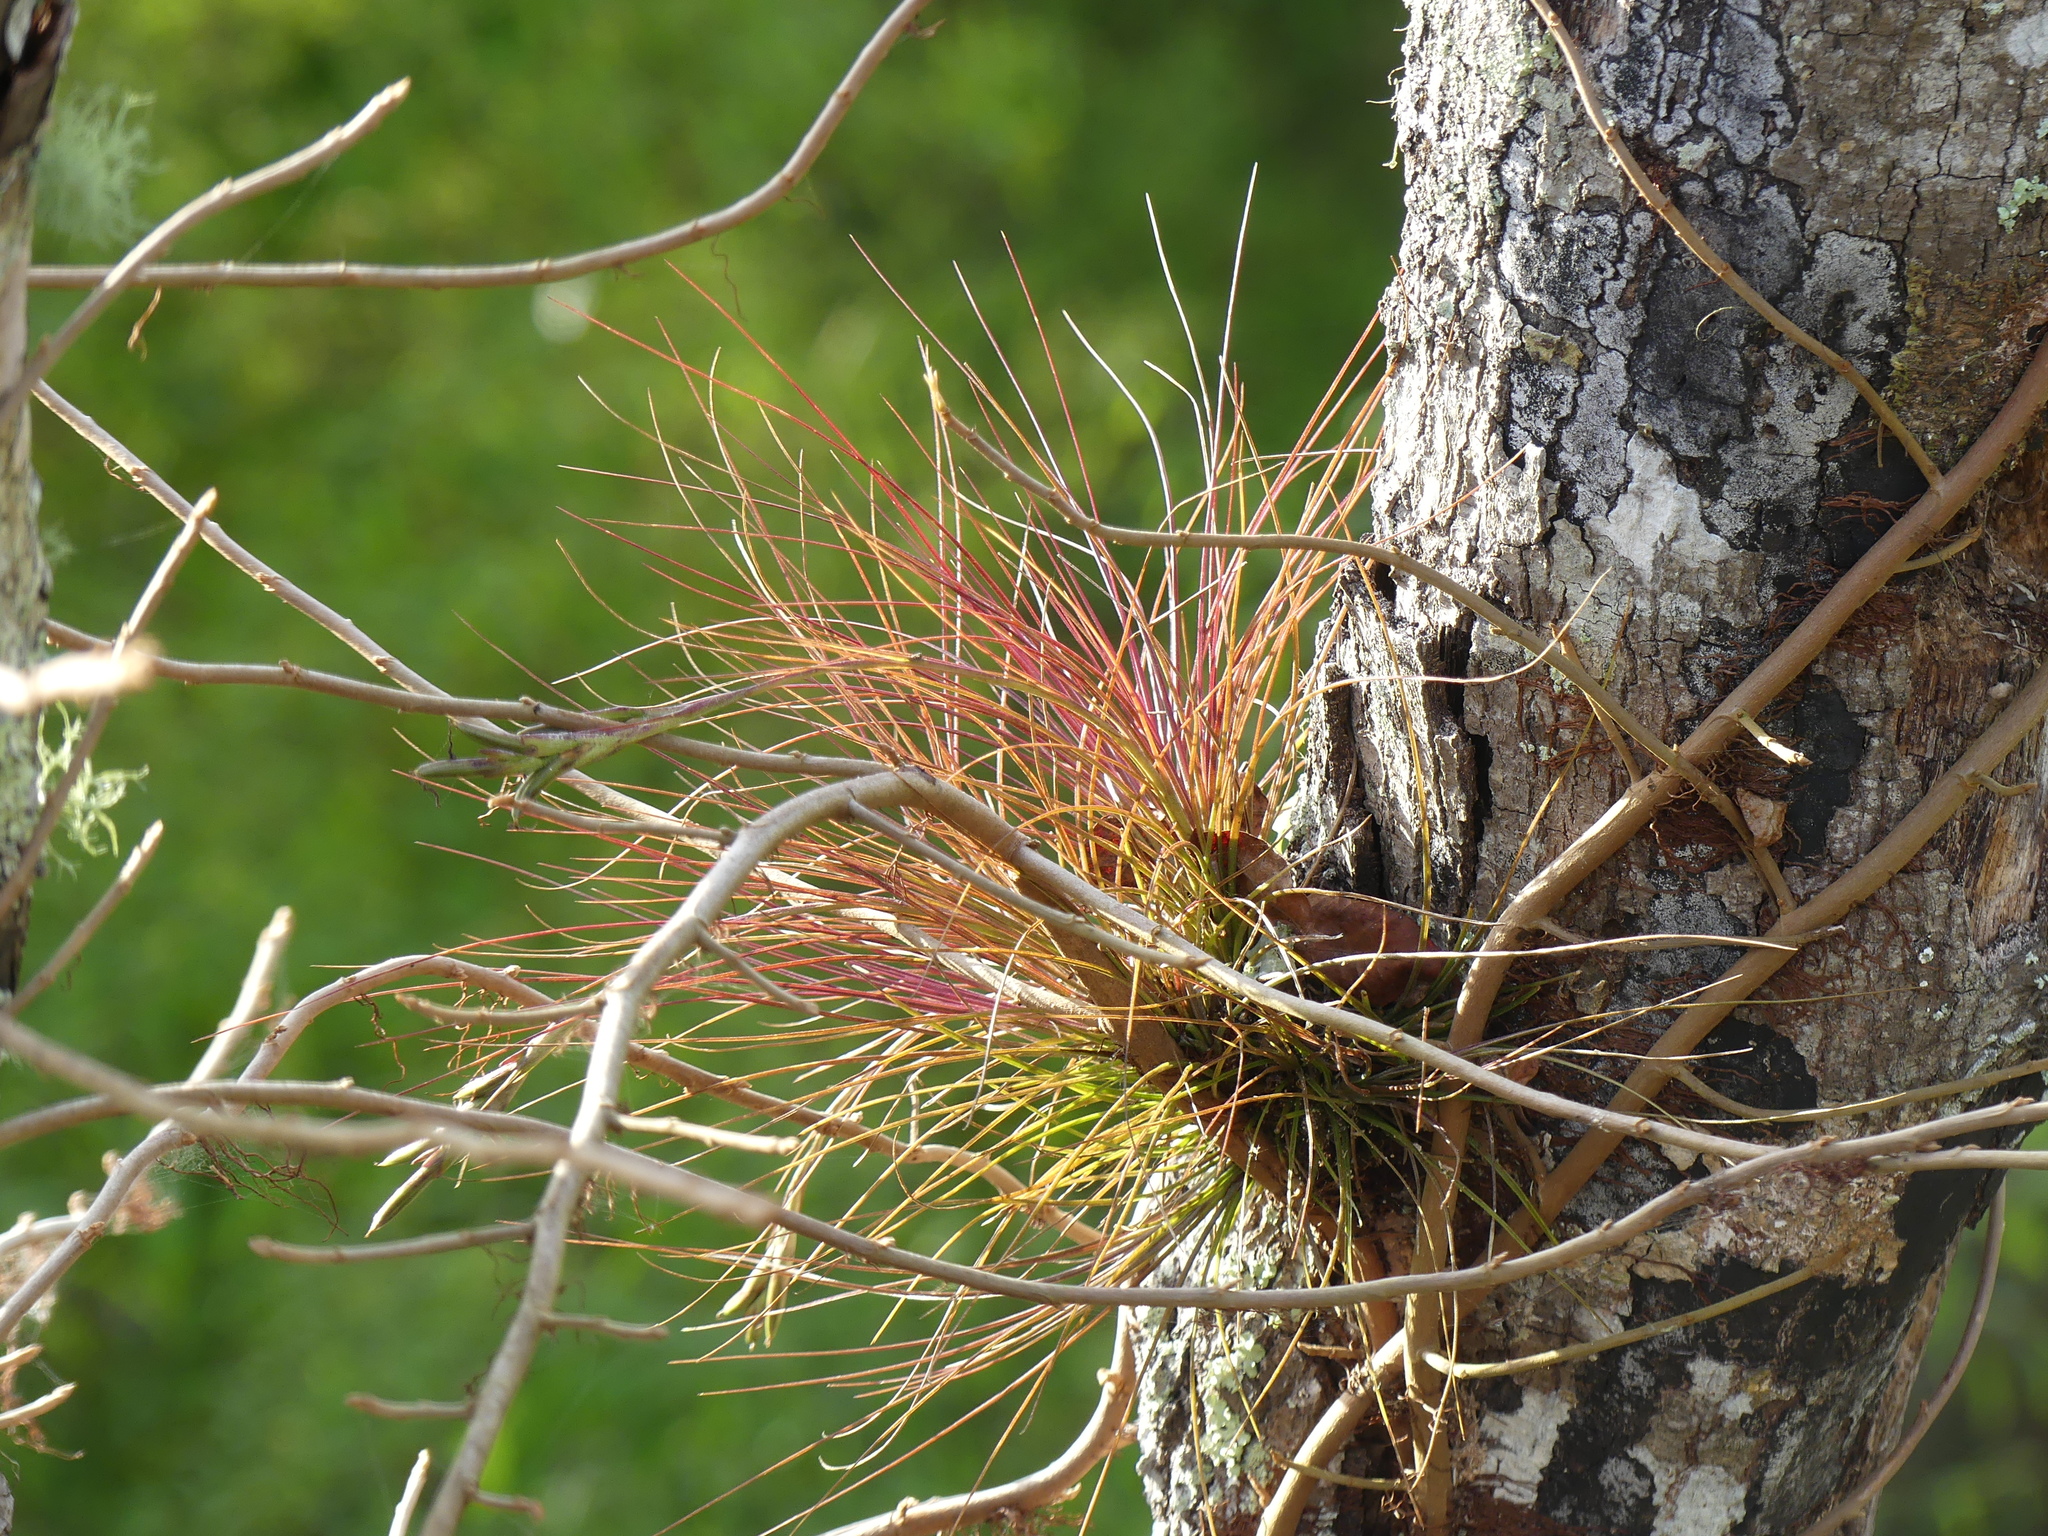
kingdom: Plantae
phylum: Tracheophyta
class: Liliopsida
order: Poales
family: Bromeliaceae
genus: Tillandsia
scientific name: Tillandsia setacea
